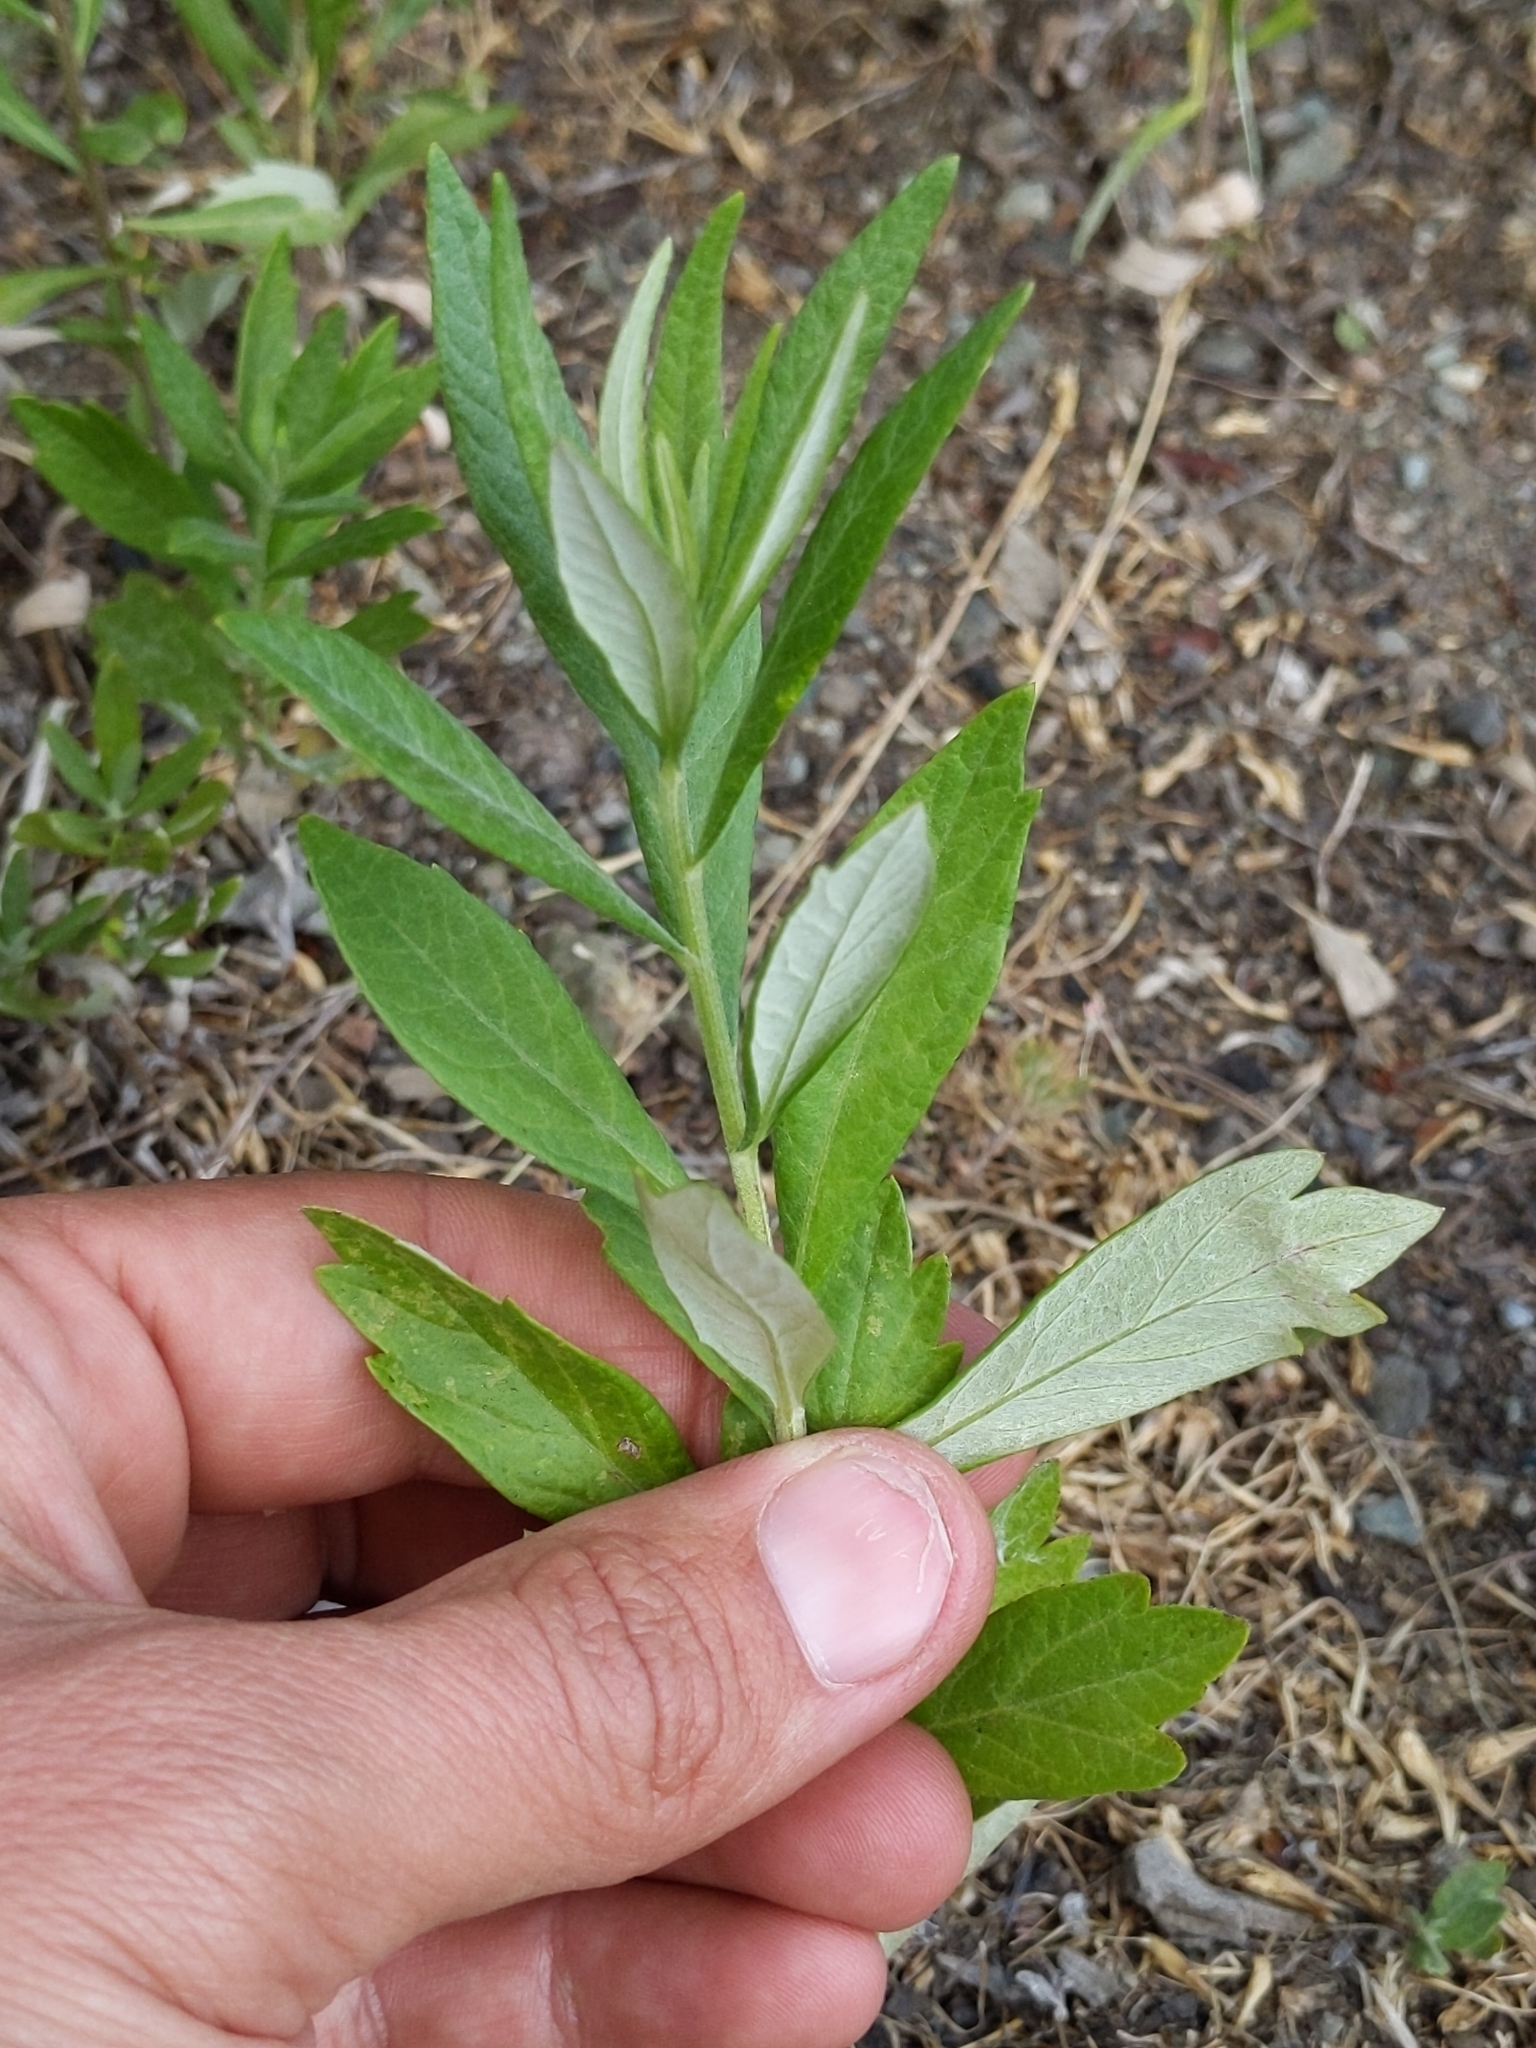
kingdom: Plantae
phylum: Tracheophyta
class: Magnoliopsida
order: Asterales
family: Asteraceae
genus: Artemisia
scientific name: Artemisia douglasiana
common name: Northwest mugwort
